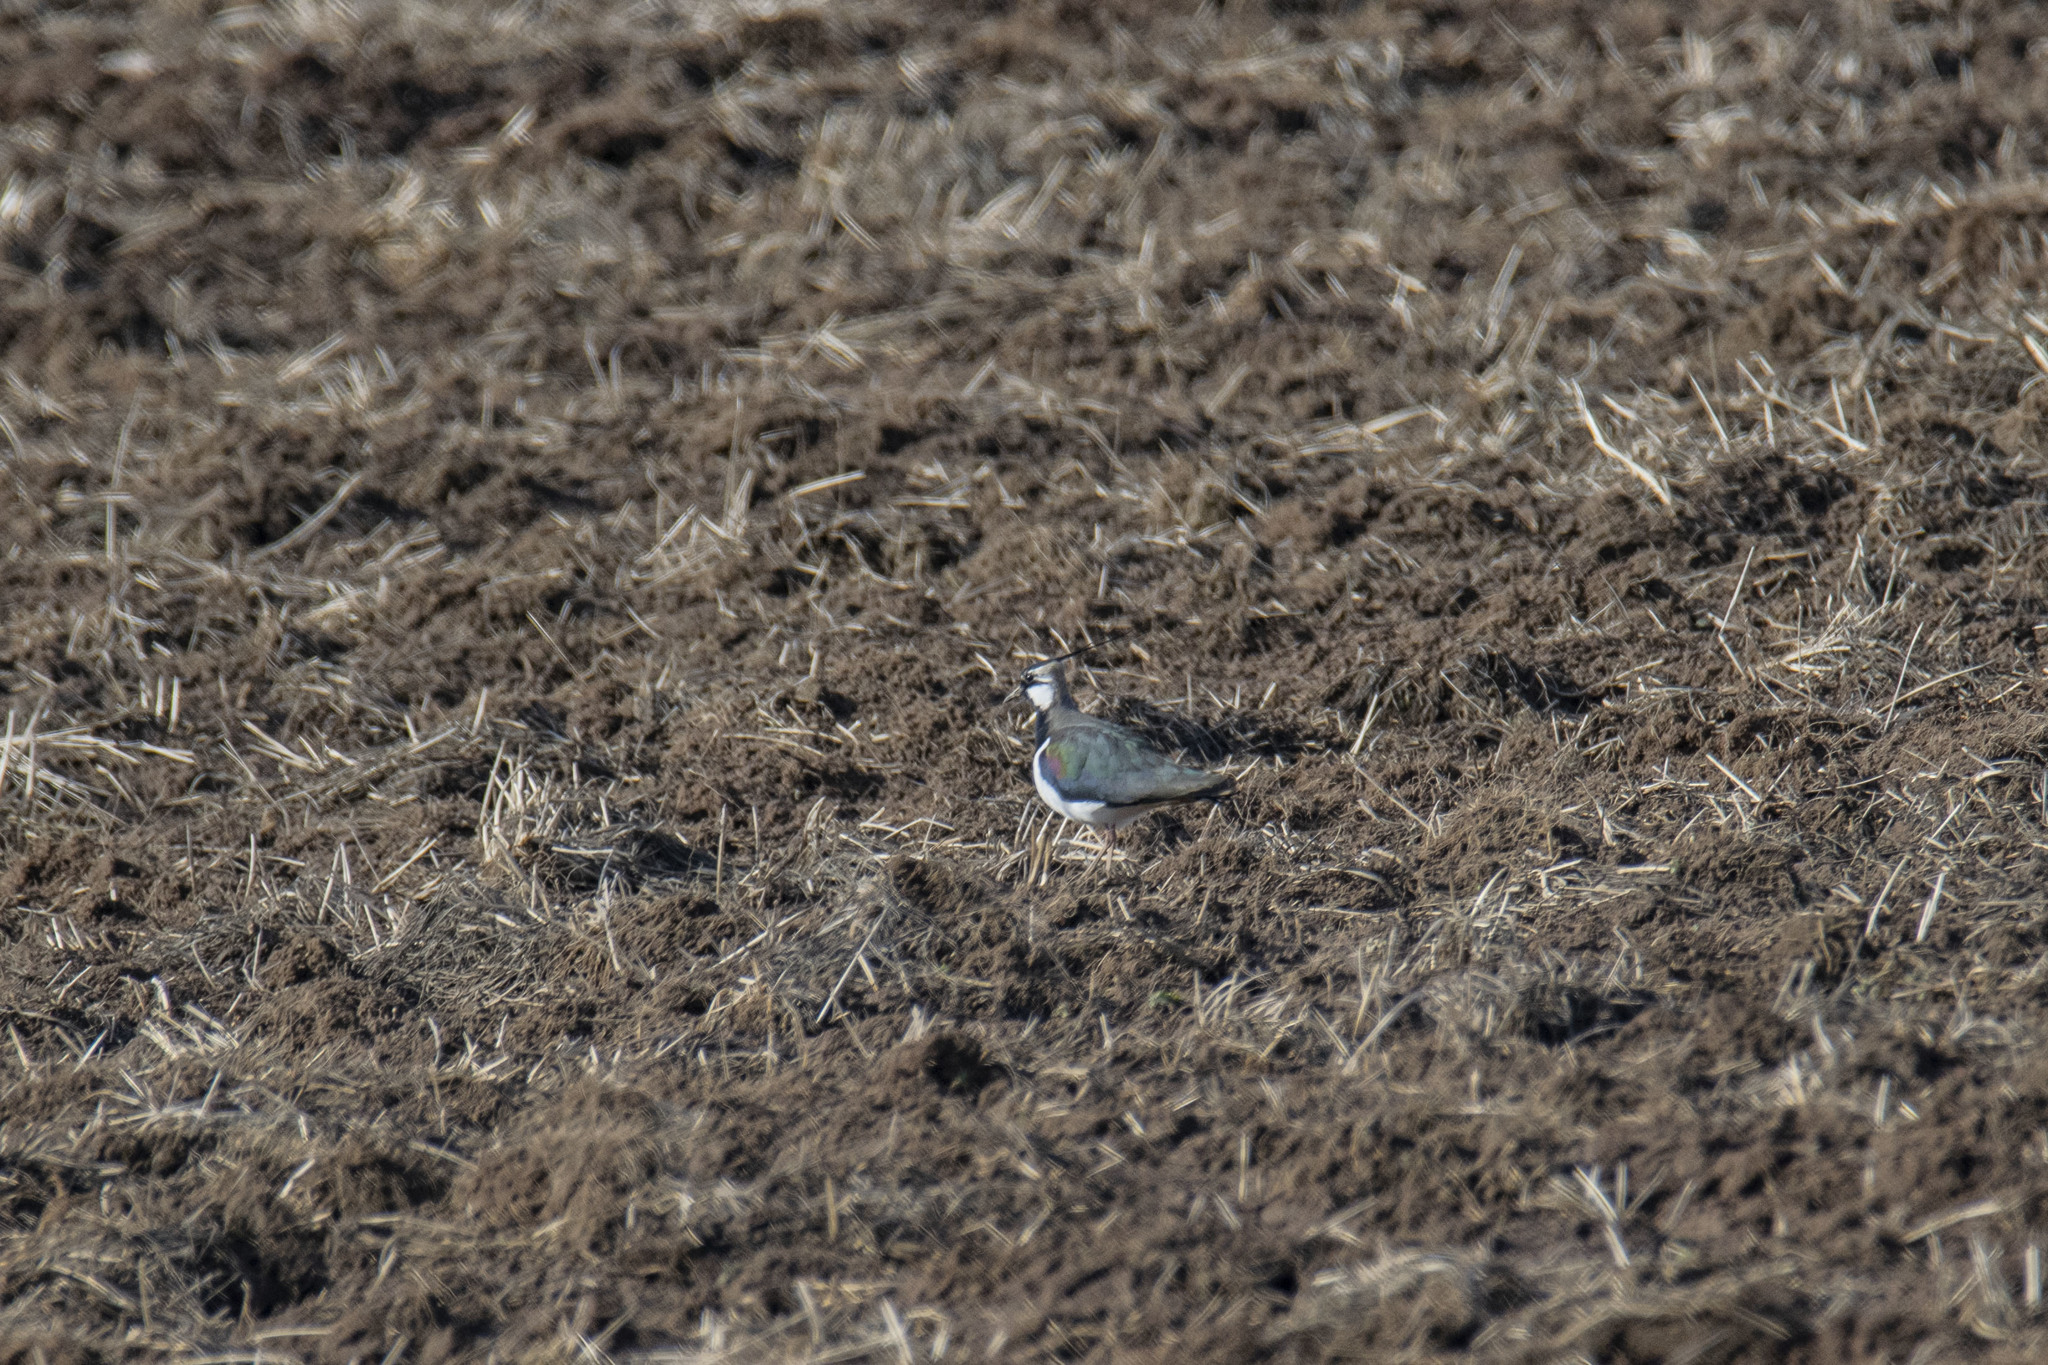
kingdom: Animalia
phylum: Chordata
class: Aves
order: Charadriiformes
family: Charadriidae
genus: Vanellus
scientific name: Vanellus vanellus
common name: Northern lapwing
